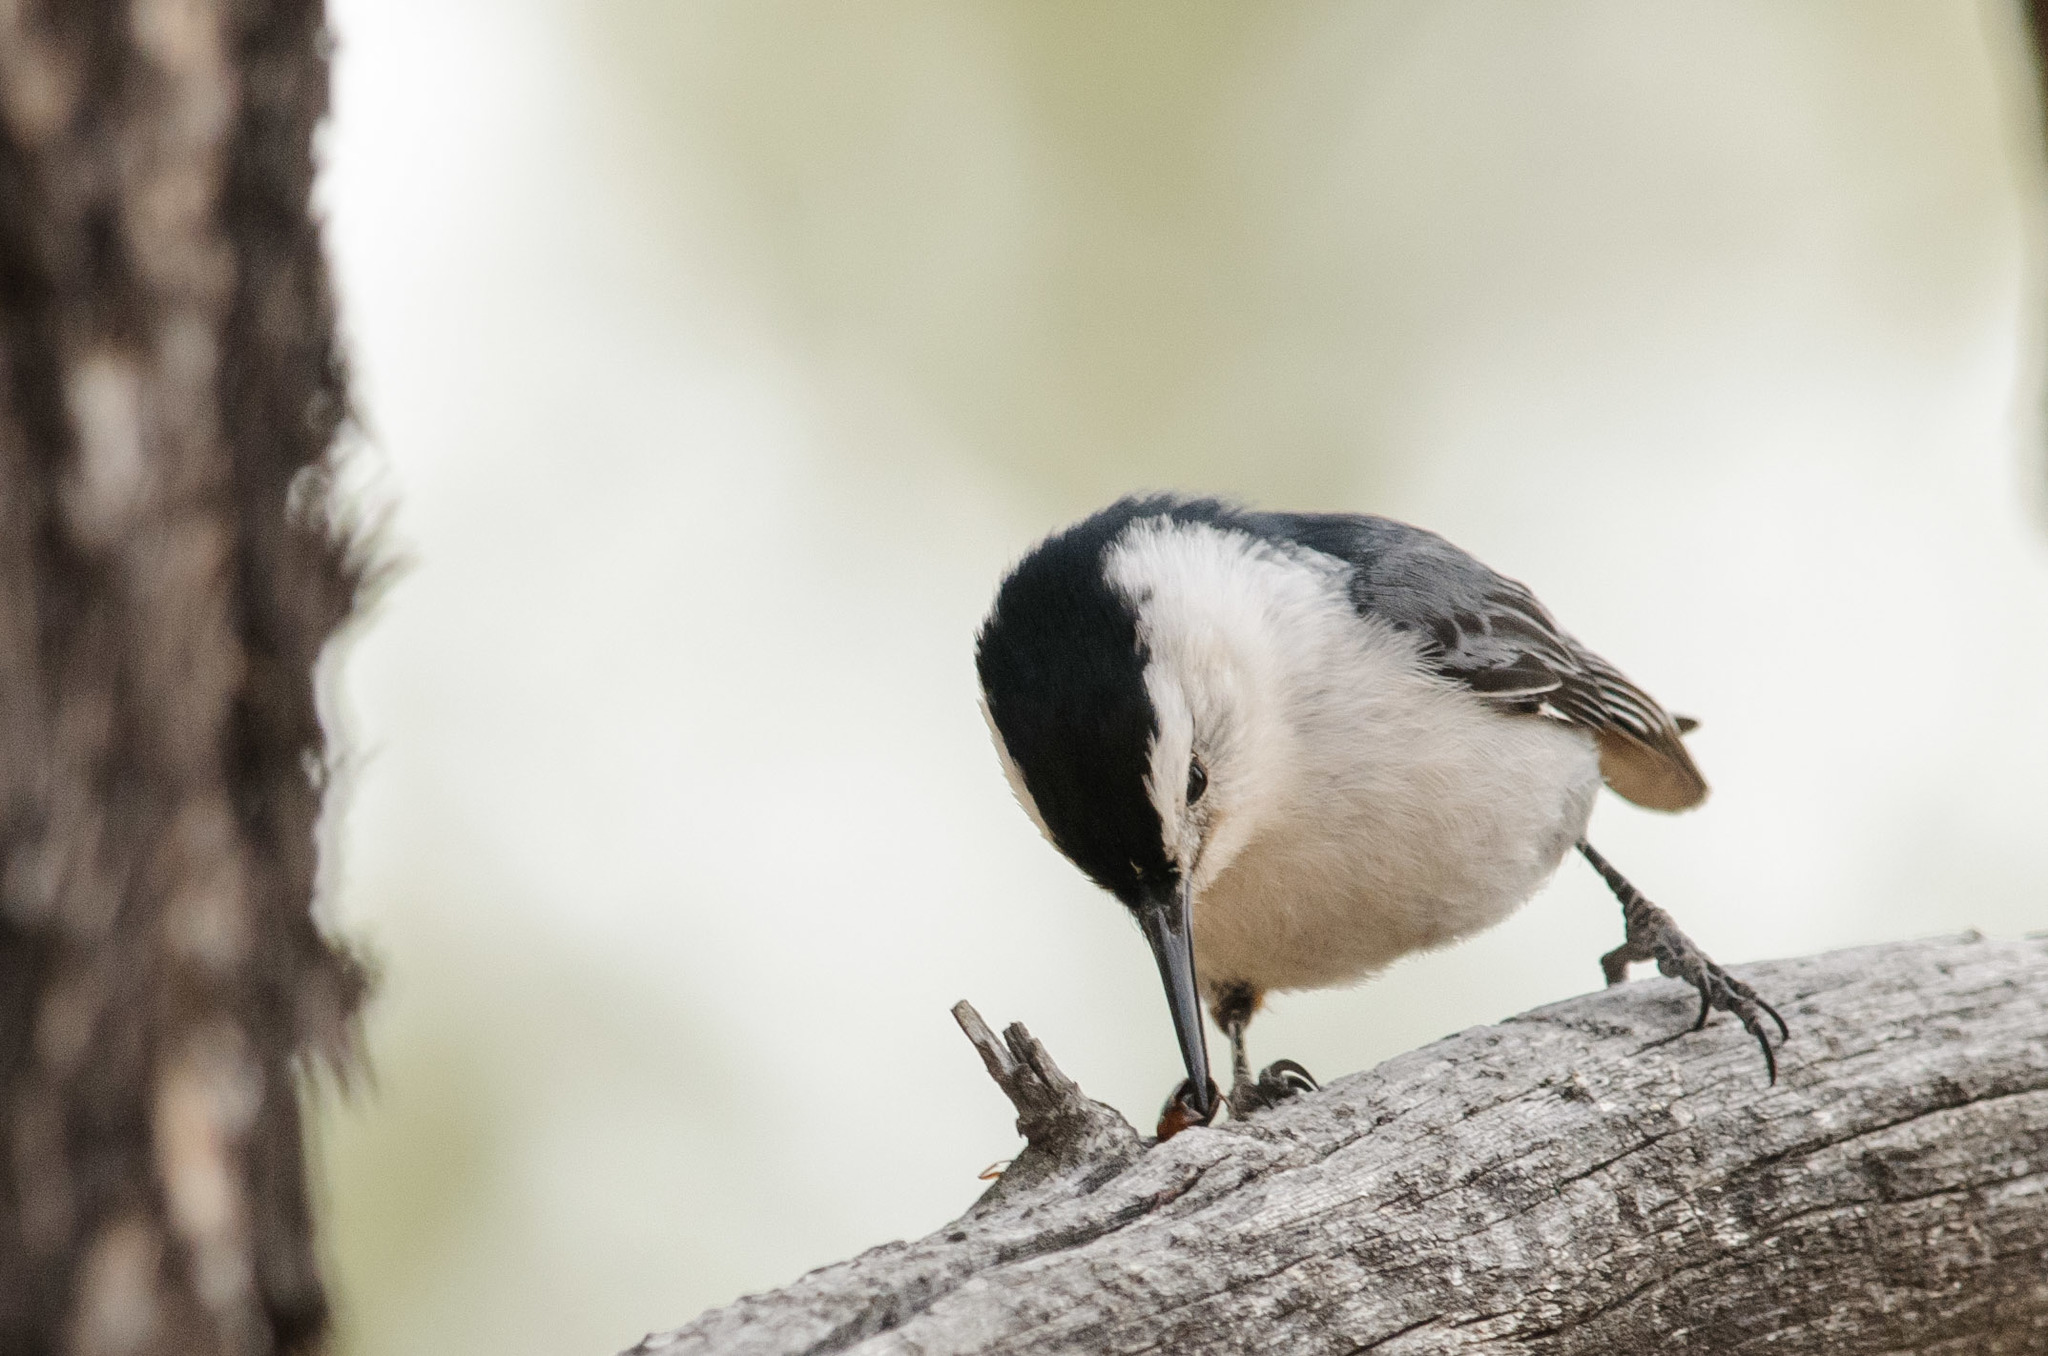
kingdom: Animalia
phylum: Chordata
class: Aves
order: Passeriformes
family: Sittidae
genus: Sitta
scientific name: Sitta carolinensis
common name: White-breasted nuthatch
